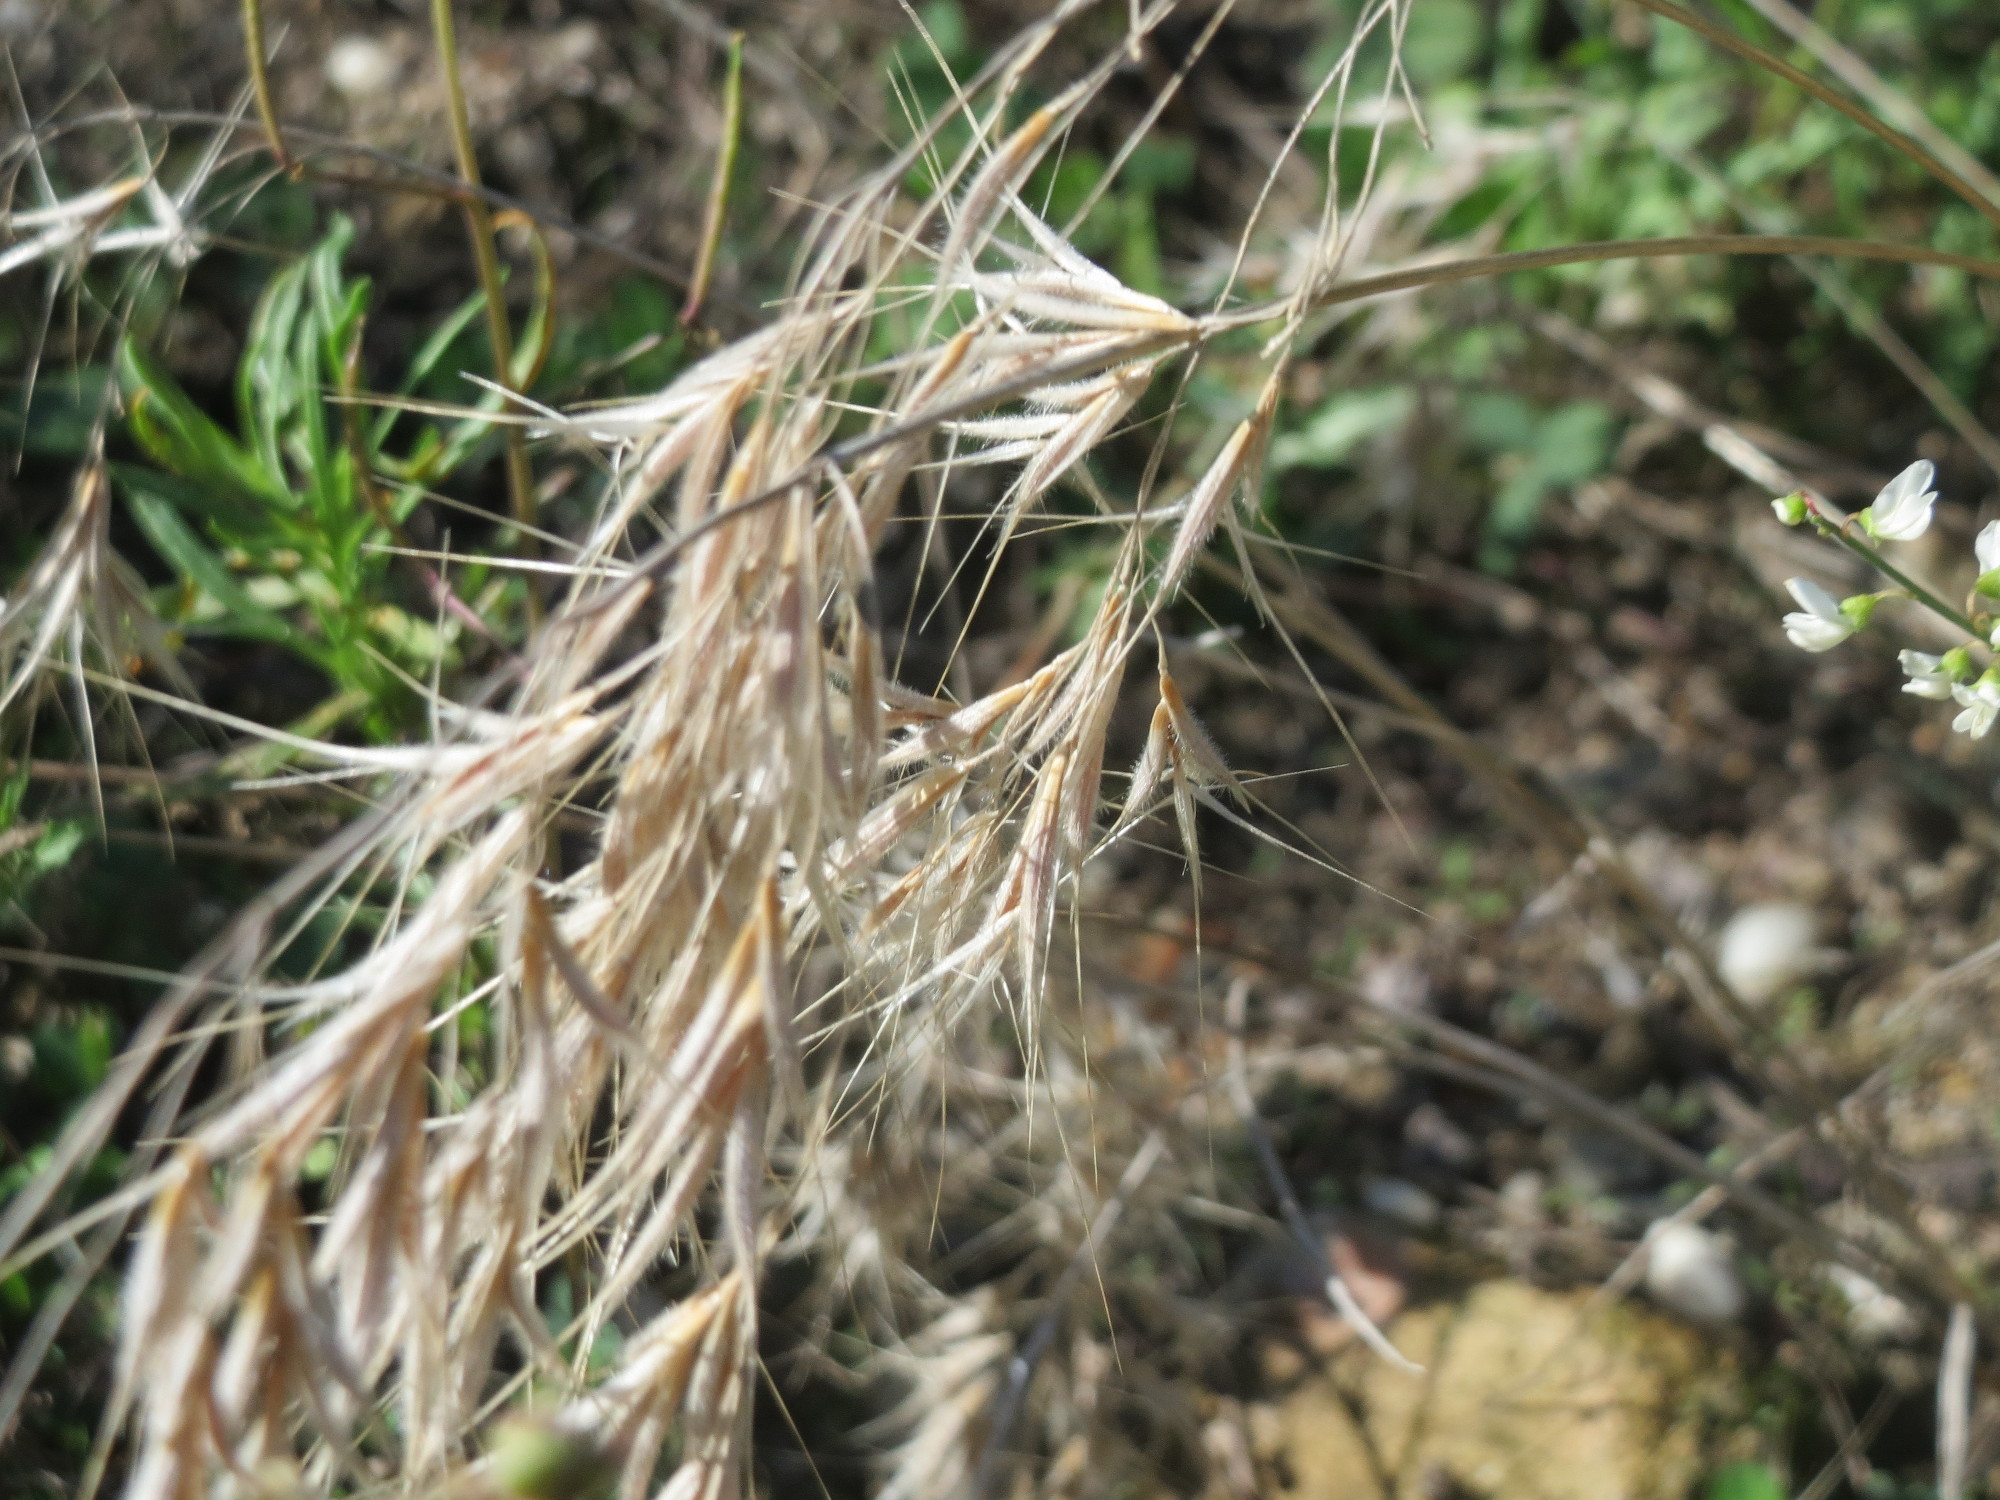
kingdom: Plantae
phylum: Tracheophyta
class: Liliopsida
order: Poales
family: Poaceae
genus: Bromus
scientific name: Bromus tectorum
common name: Cheatgrass
